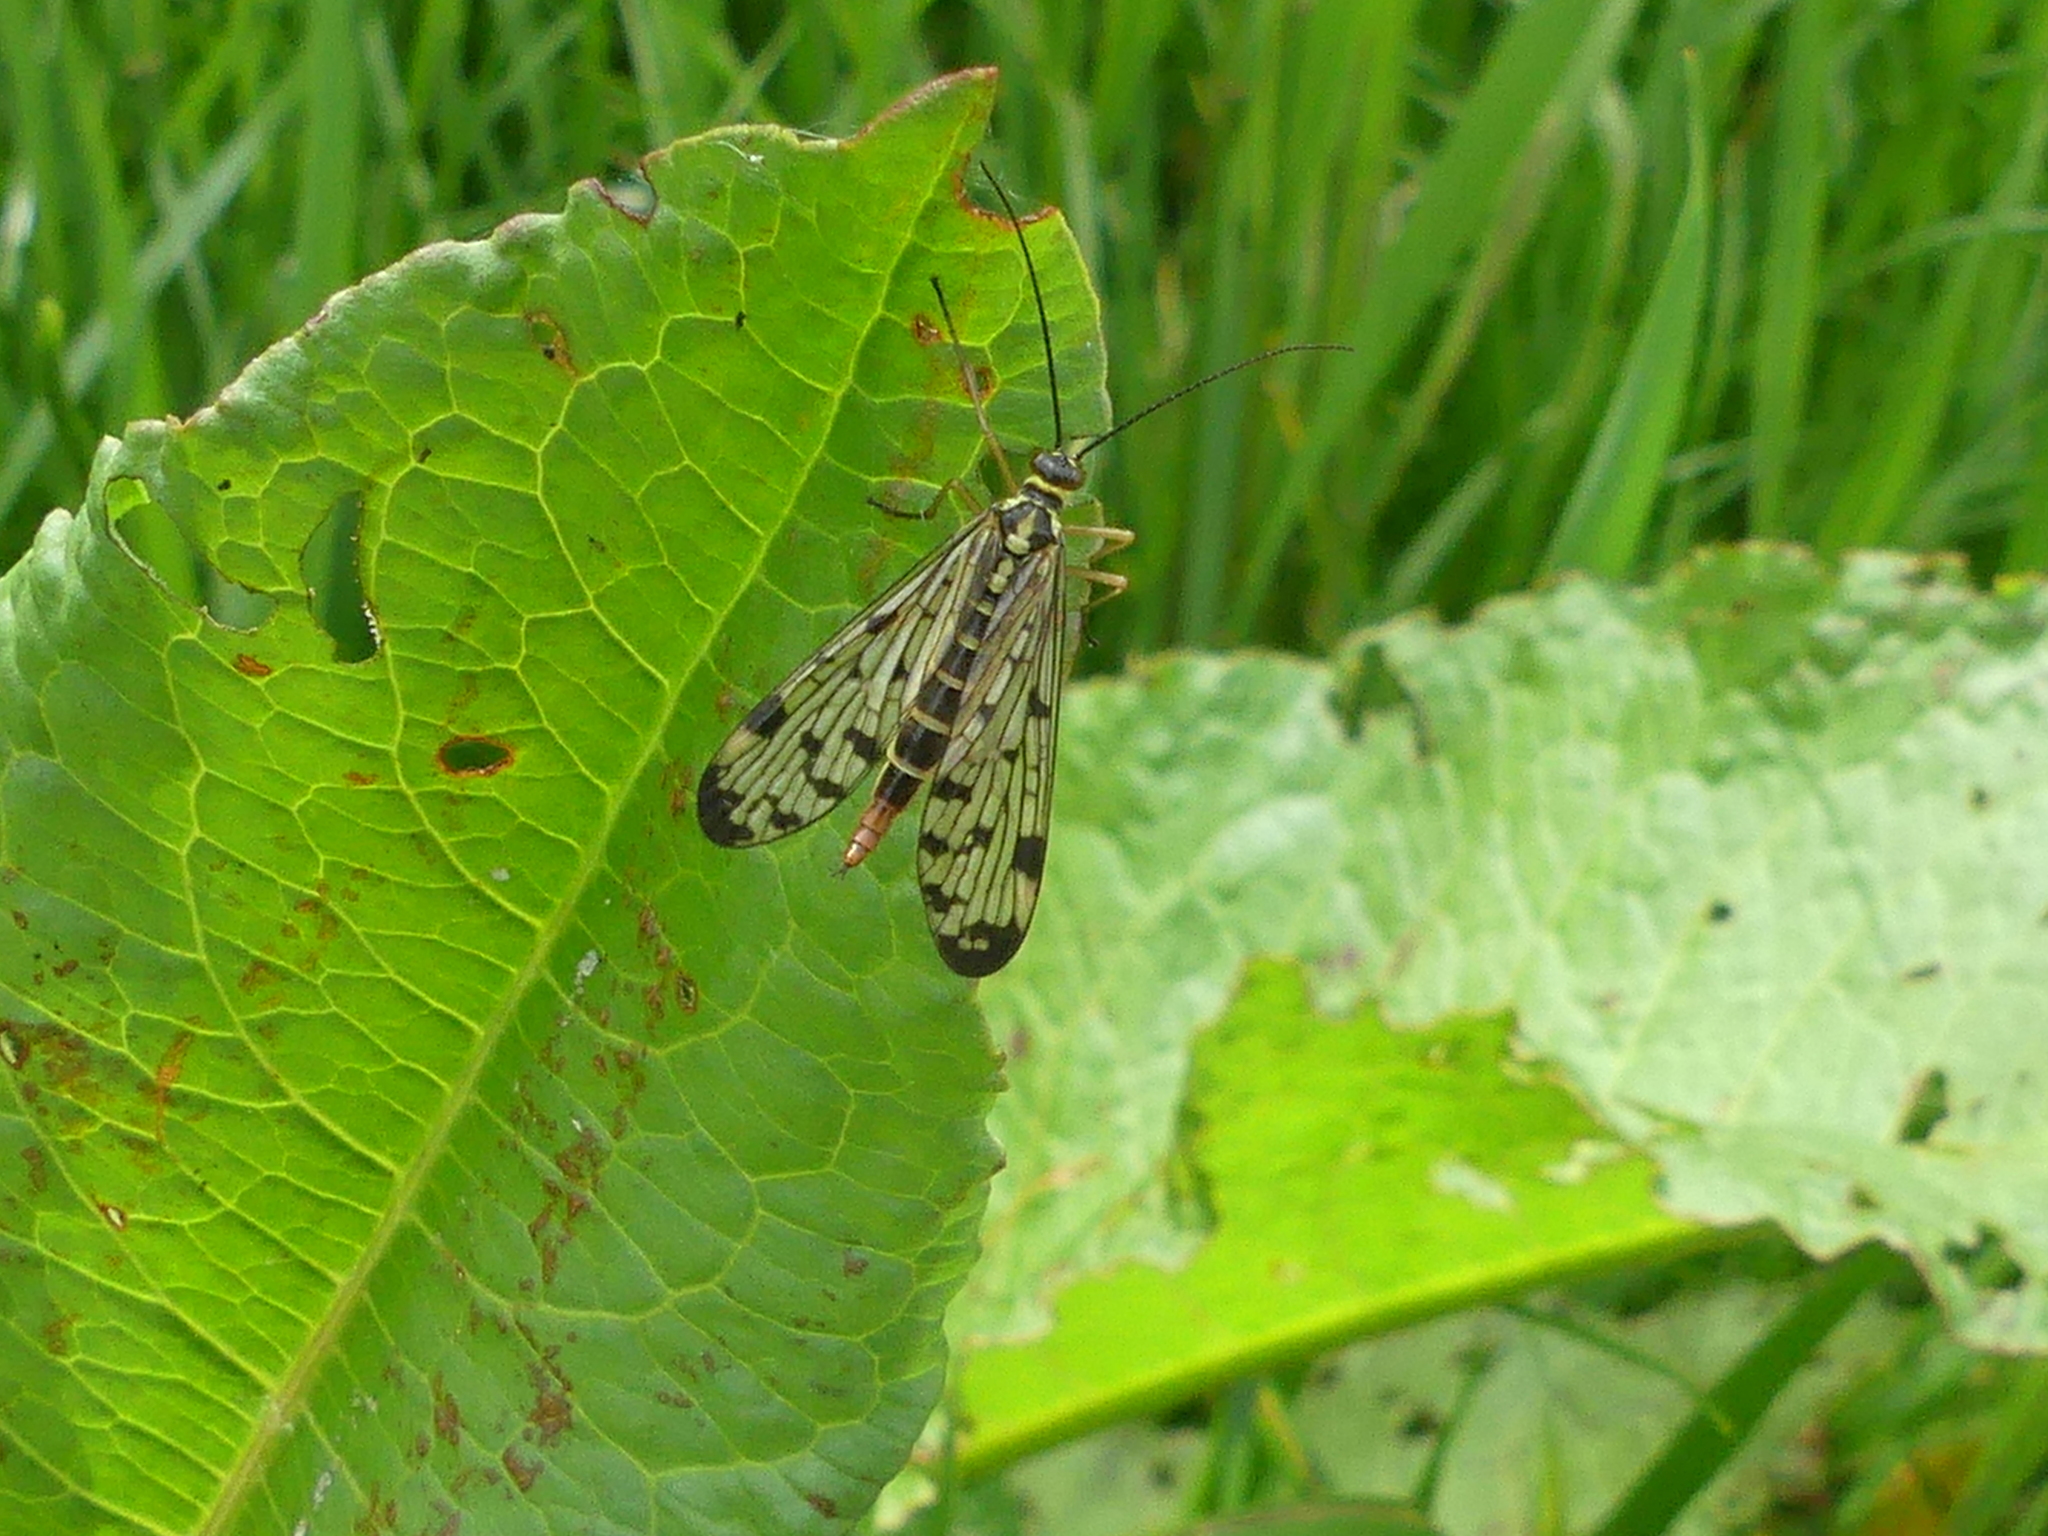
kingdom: Animalia
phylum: Arthropoda
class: Insecta
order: Mecoptera
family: Panorpidae
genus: Panorpa
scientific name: Panorpa germanica
